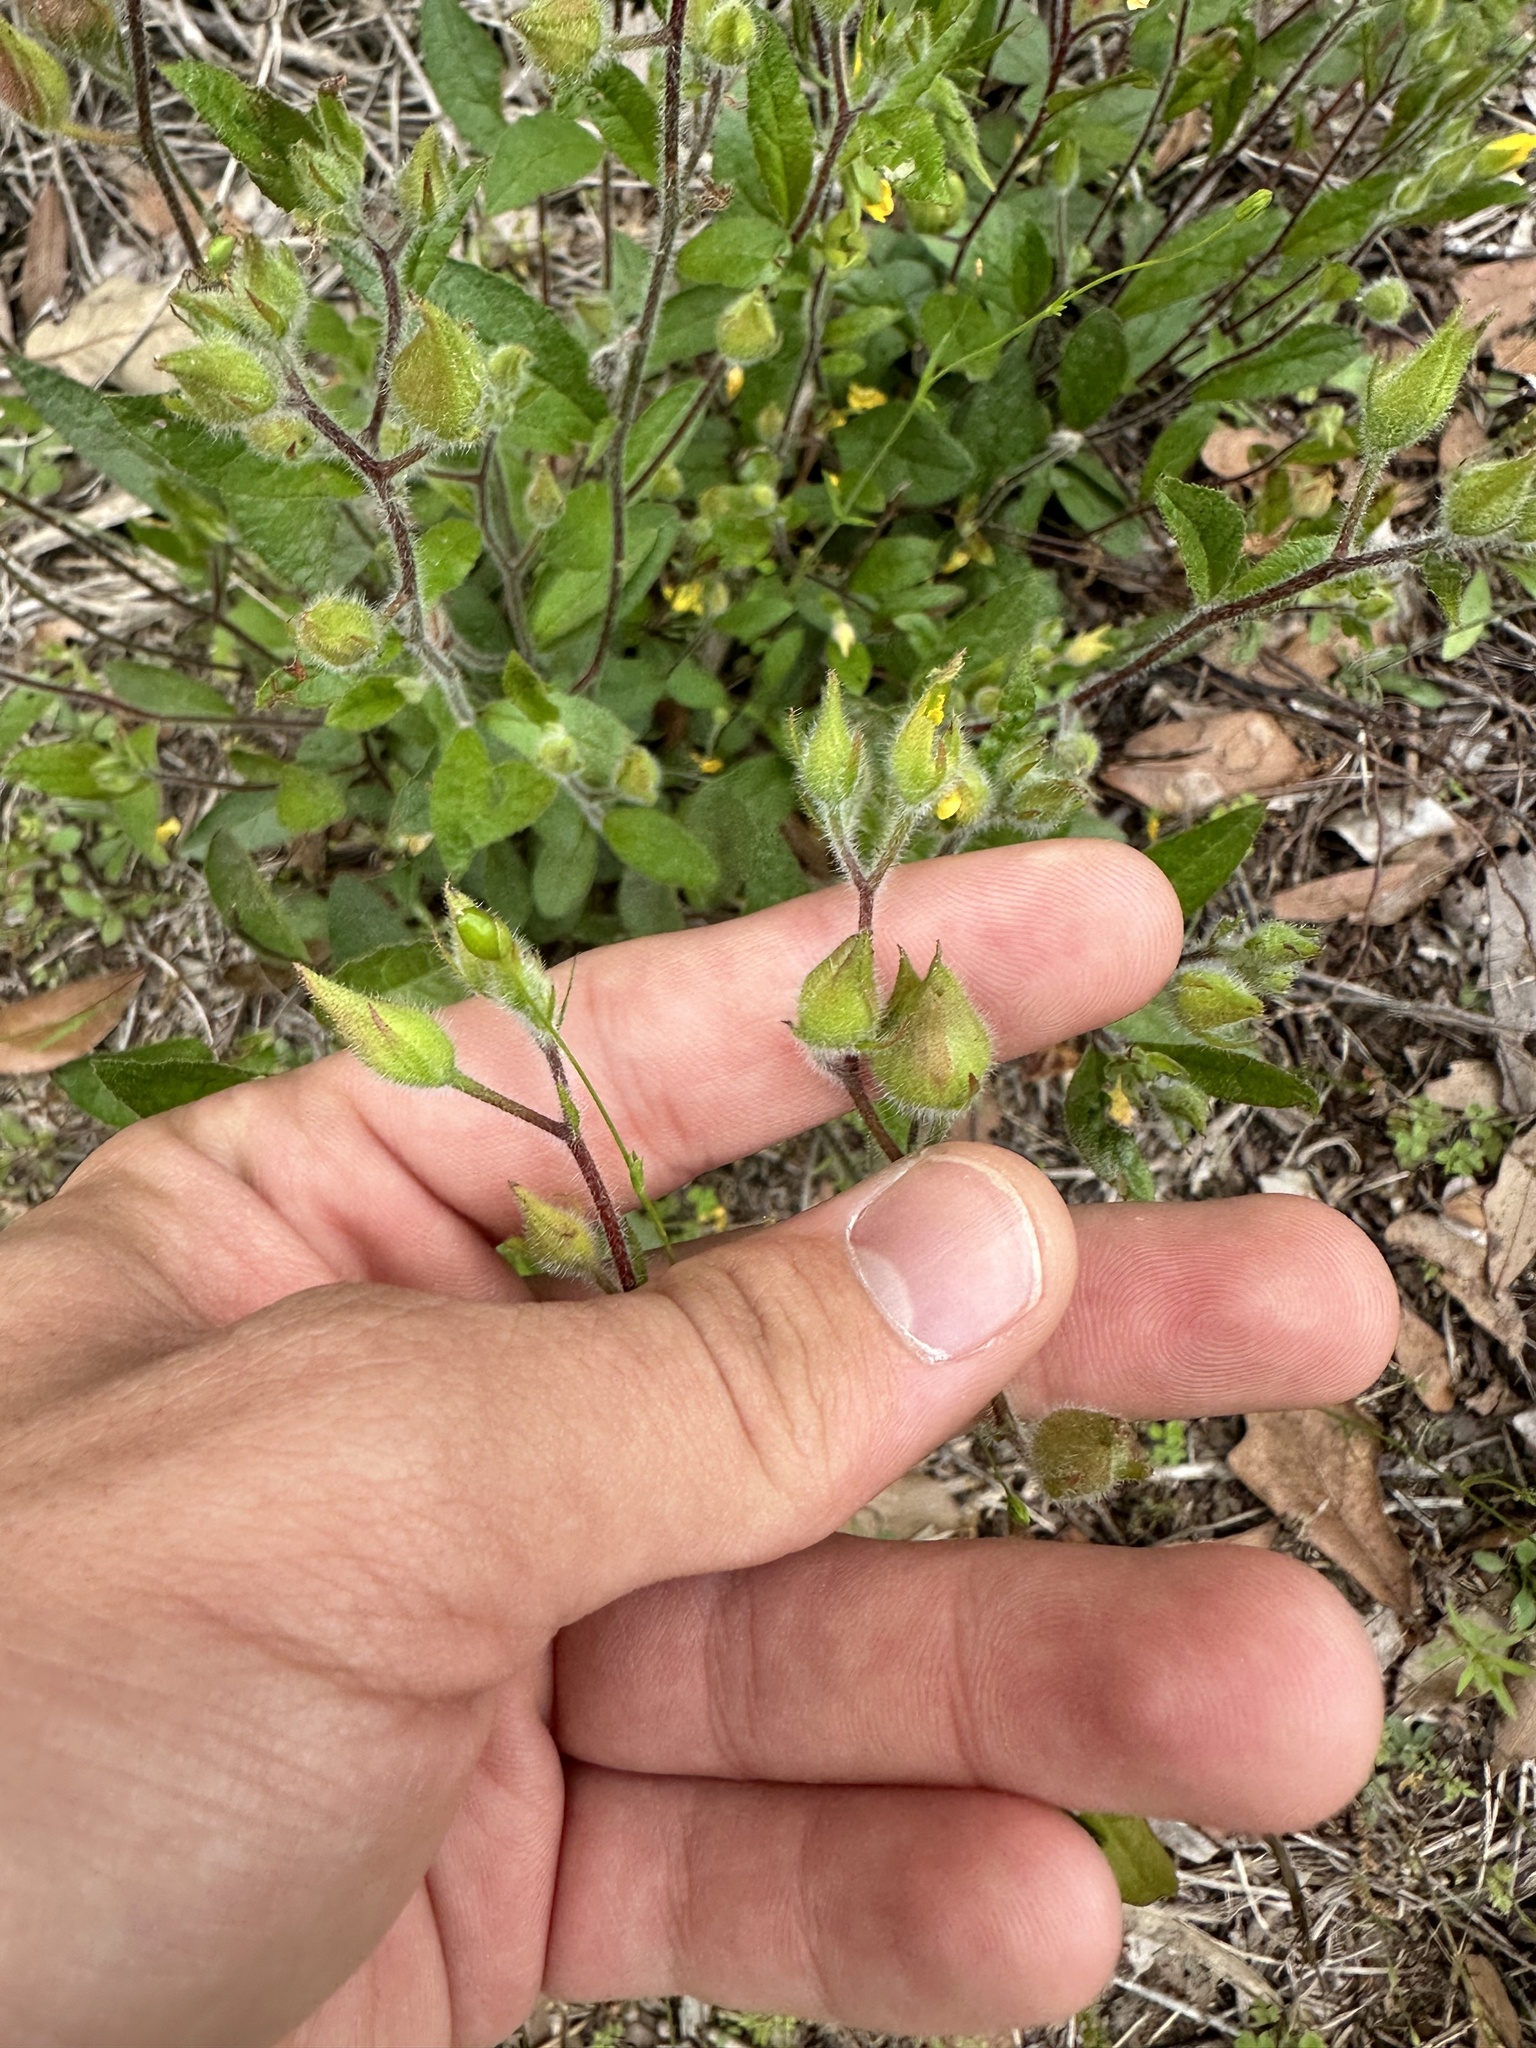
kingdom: Plantae
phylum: Tracheophyta
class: Magnoliopsida
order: Malvales
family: Cistaceae
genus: Crocanthemum
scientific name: Crocanthemum carolinianum
